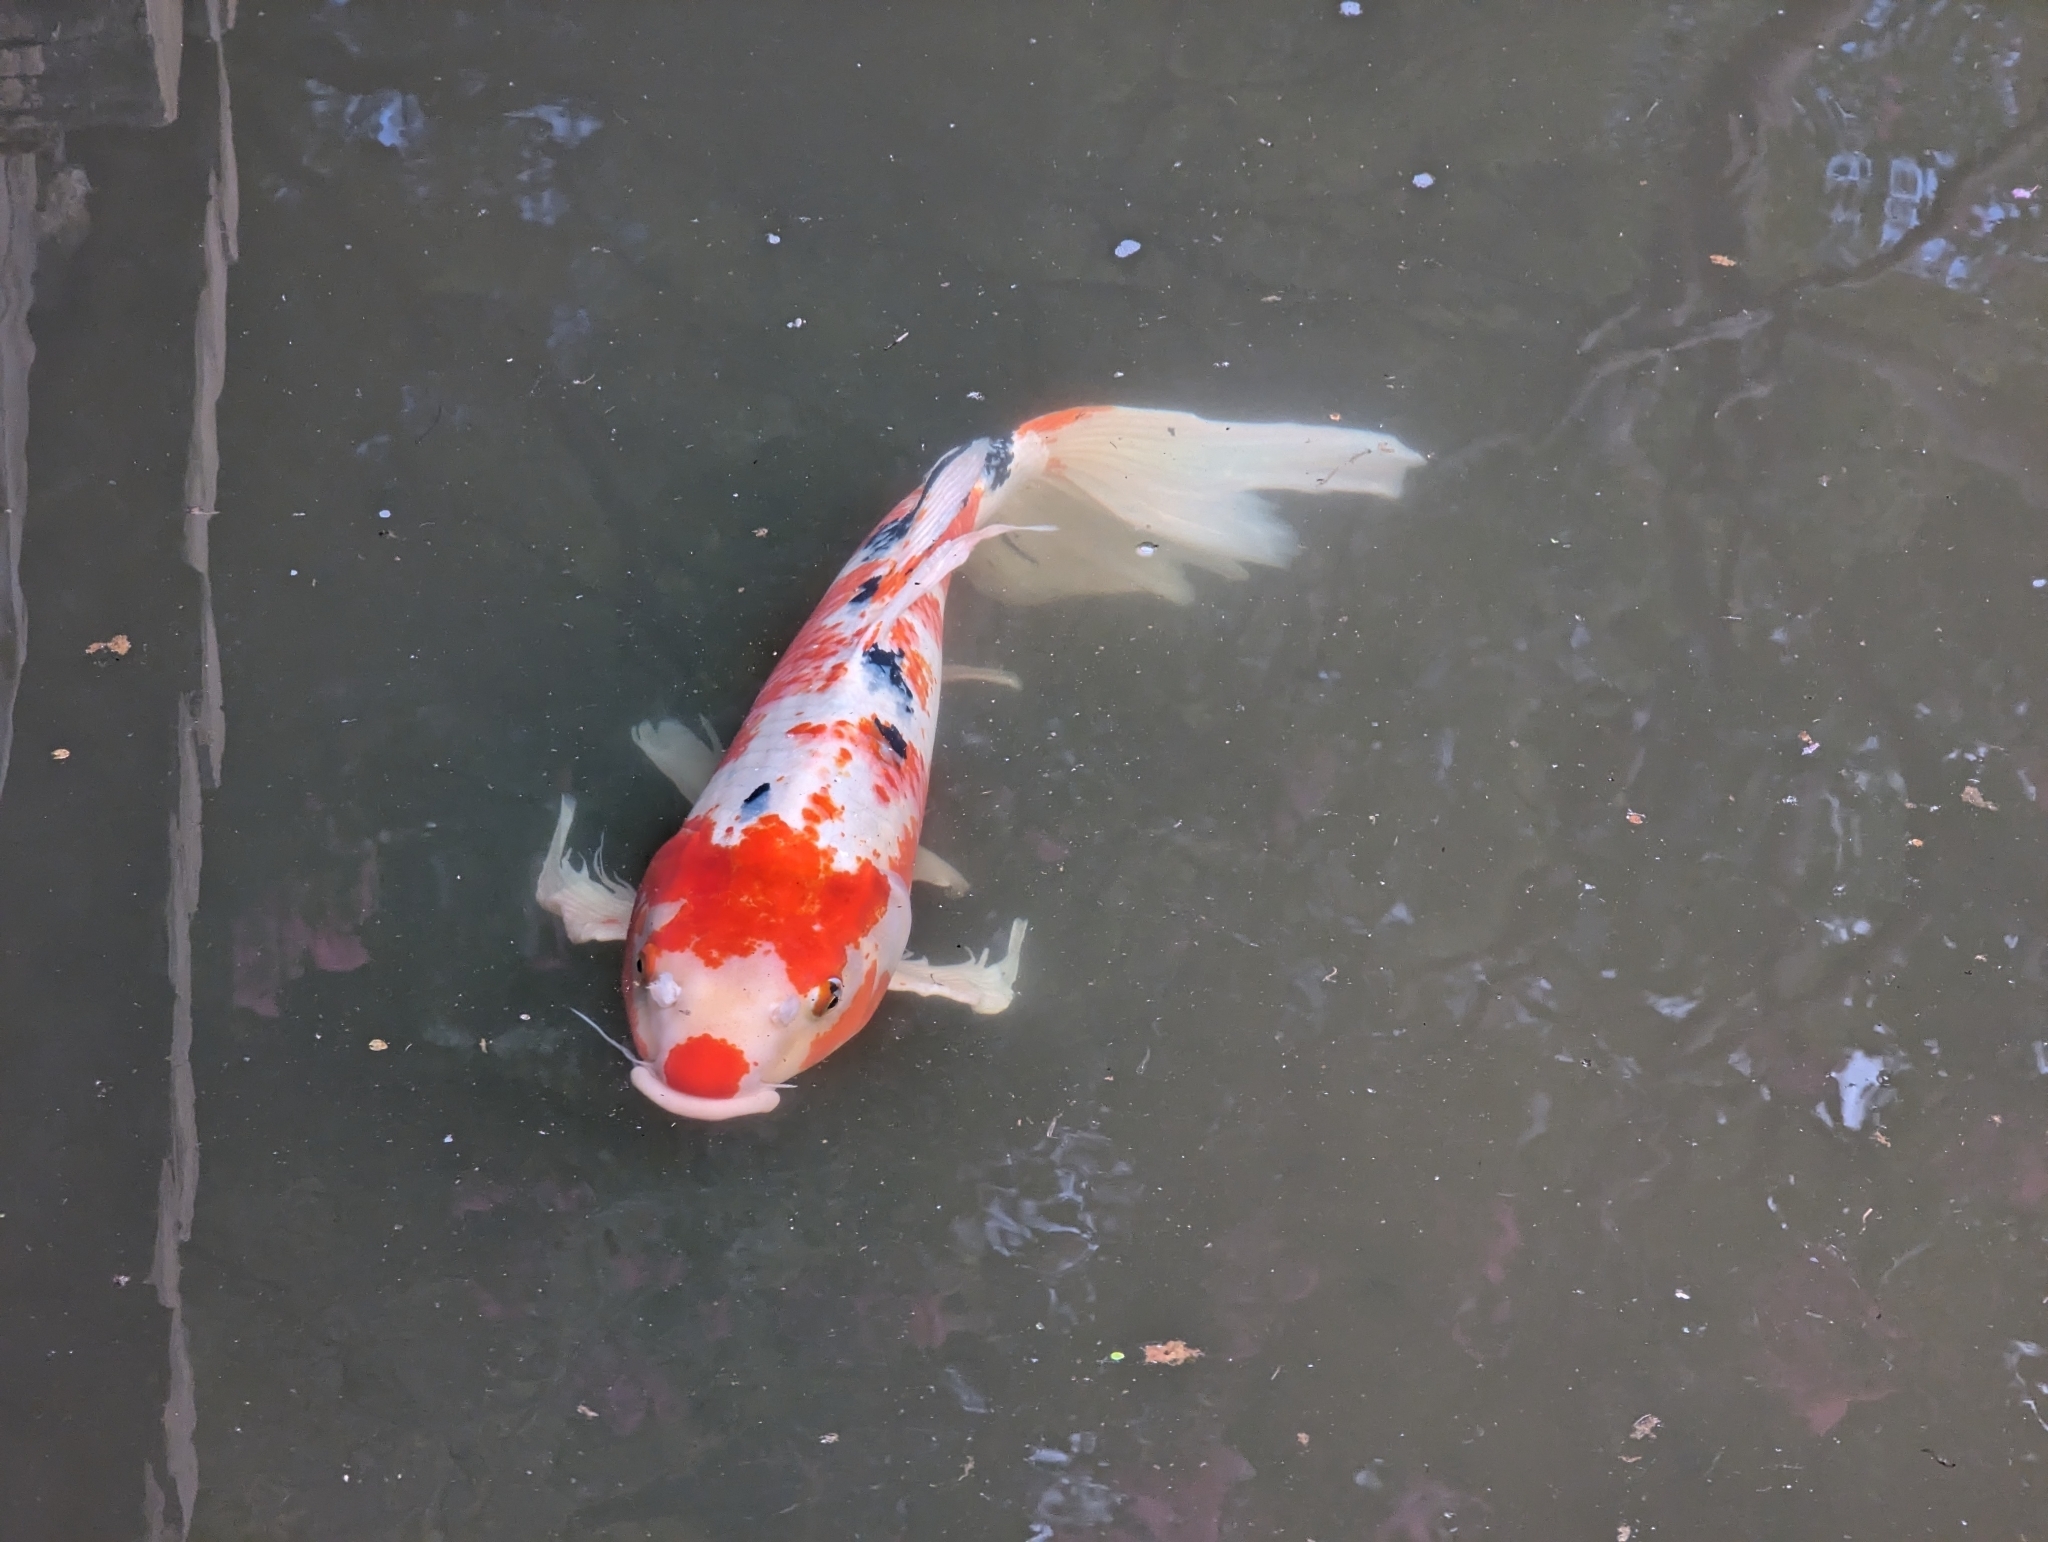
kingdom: Animalia
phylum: Chordata
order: Cypriniformes
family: Cyprinidae
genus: Cyprinus
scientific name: Cyprinus rubrofuscus
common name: Koi
